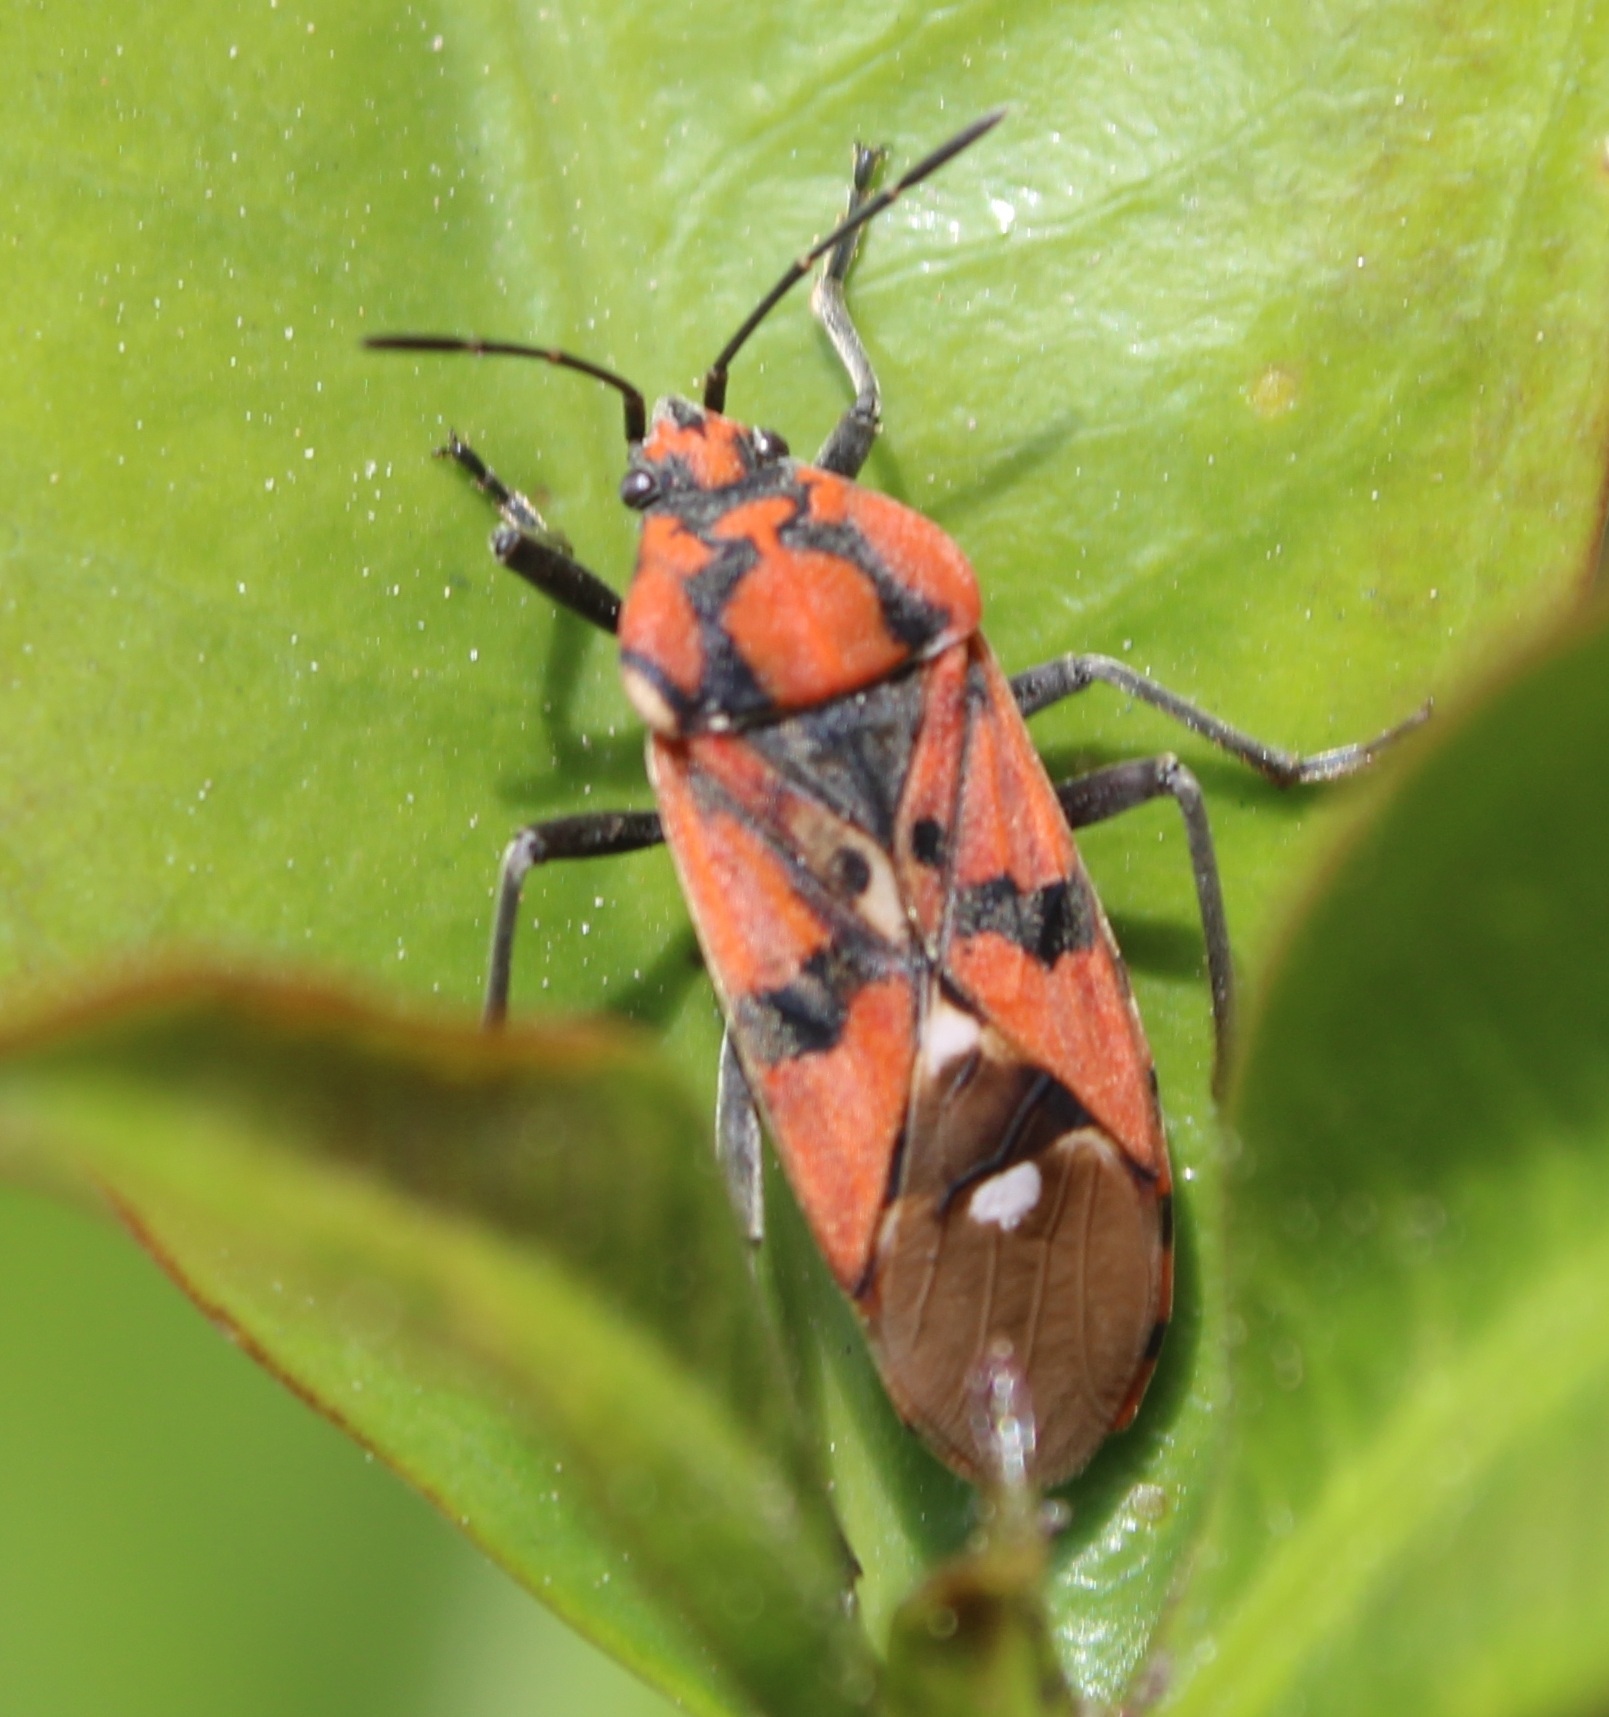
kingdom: Animalia
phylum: Arthropoda
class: Insecta
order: Hemiptera
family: Lygaeidae
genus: Spilostethus
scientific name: Spilostethus pandurus
